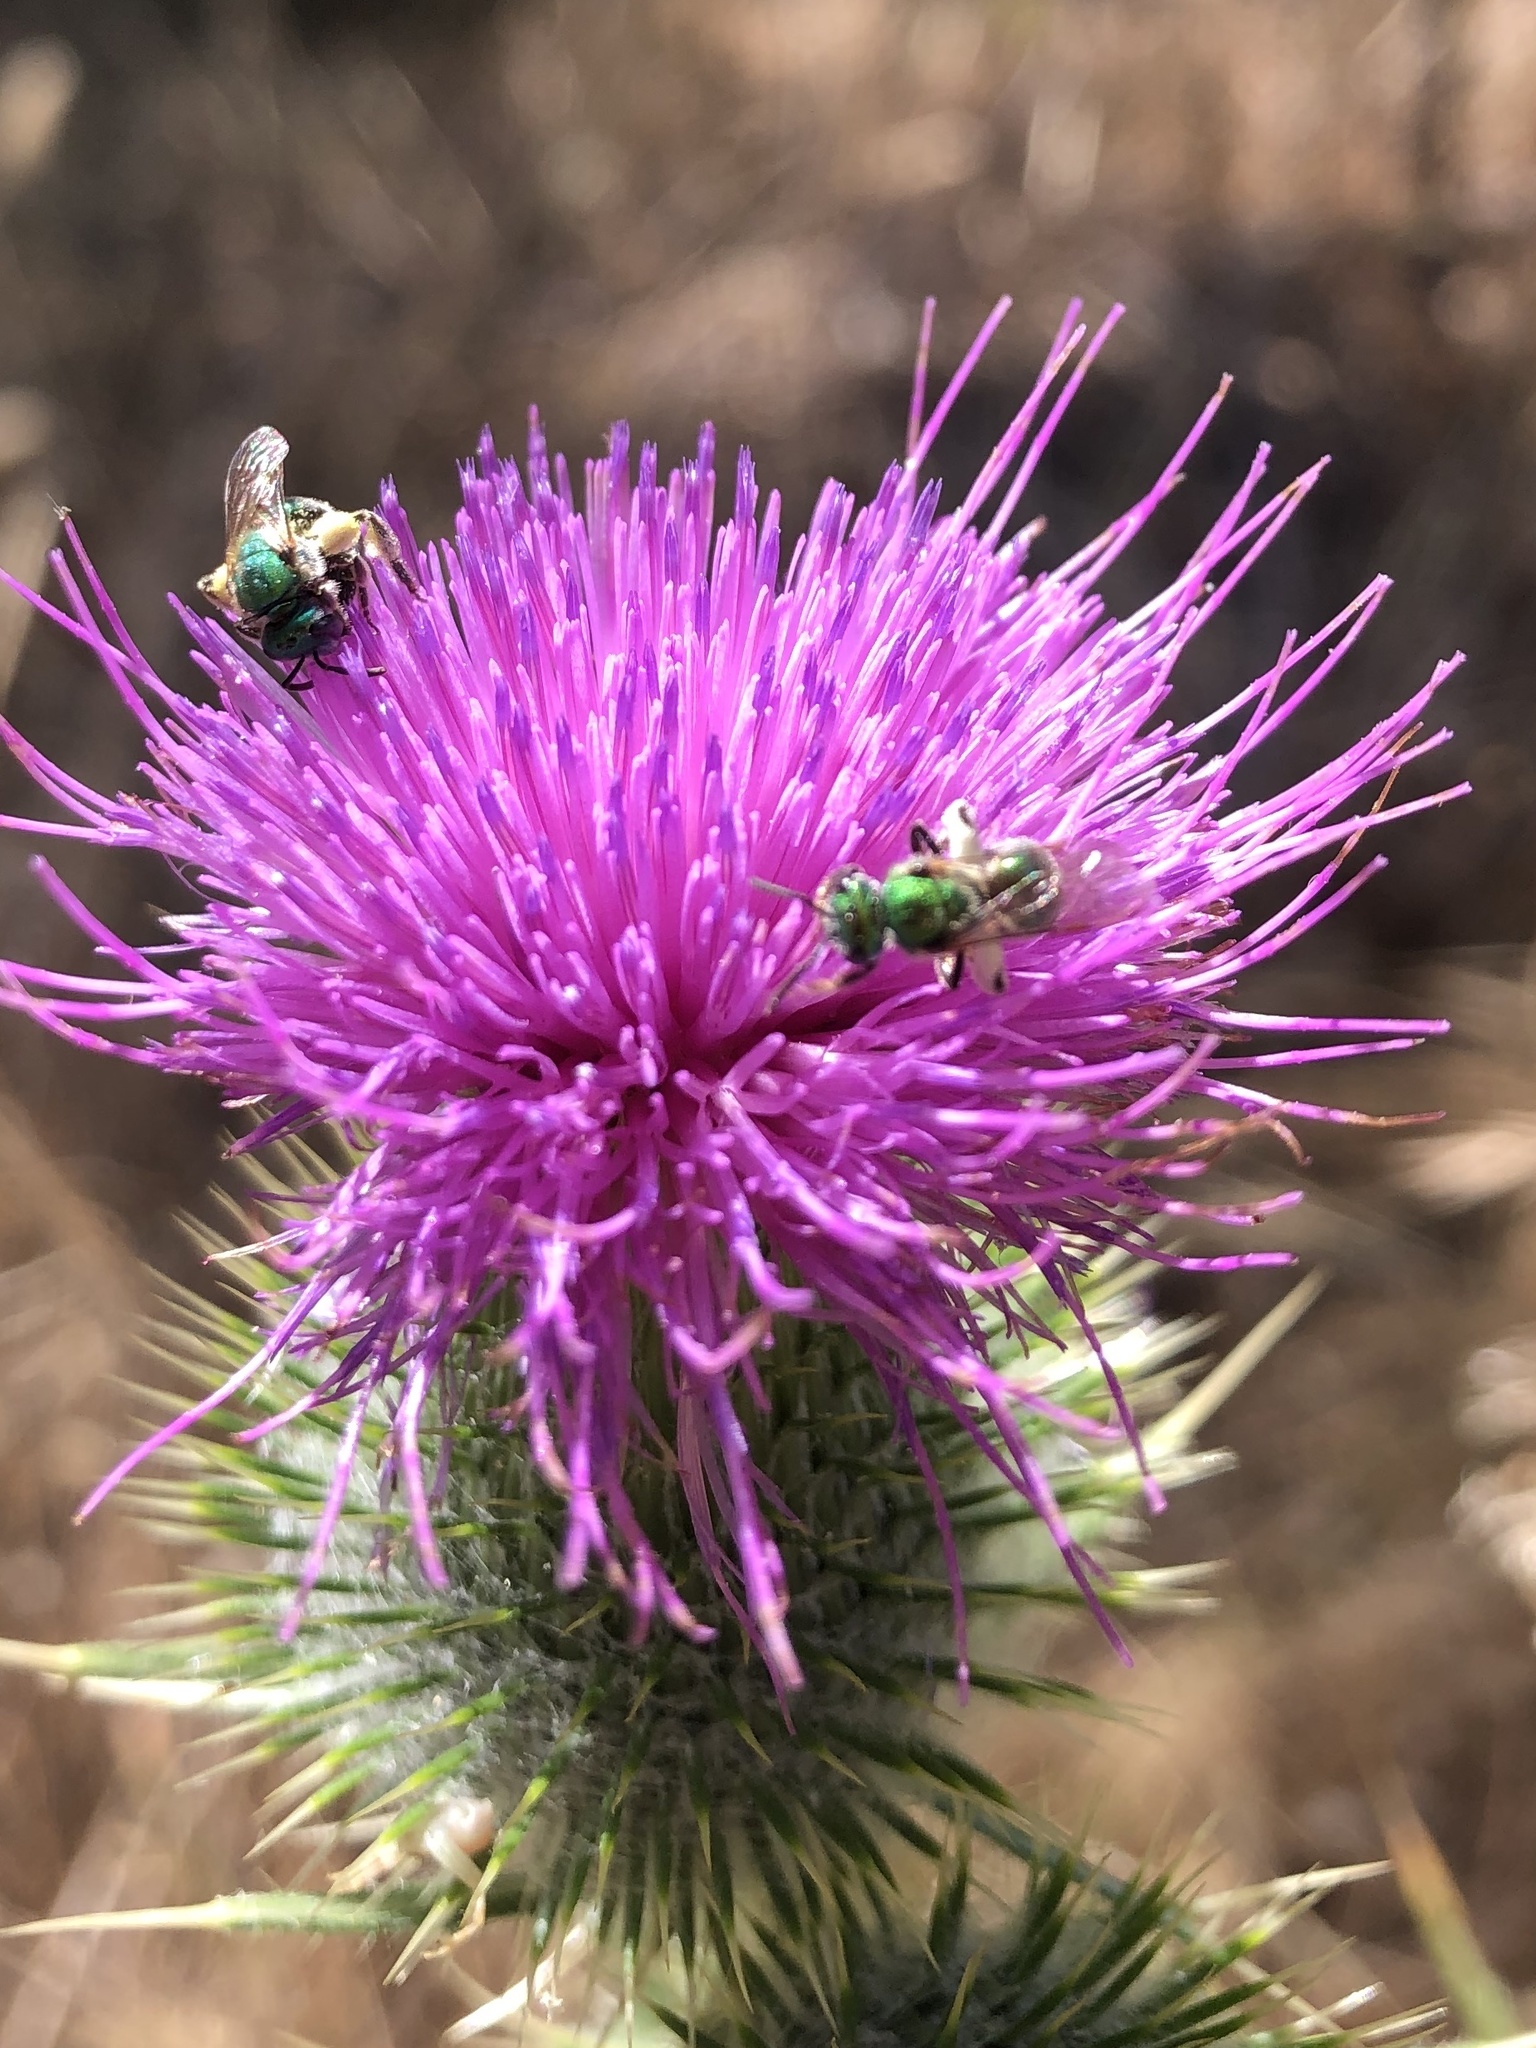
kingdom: Animalia
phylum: Arthropoda
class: Insecta
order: Hymenoptera
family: Halictidae
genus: Augochlorella
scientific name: Augochlorella pomoniella
